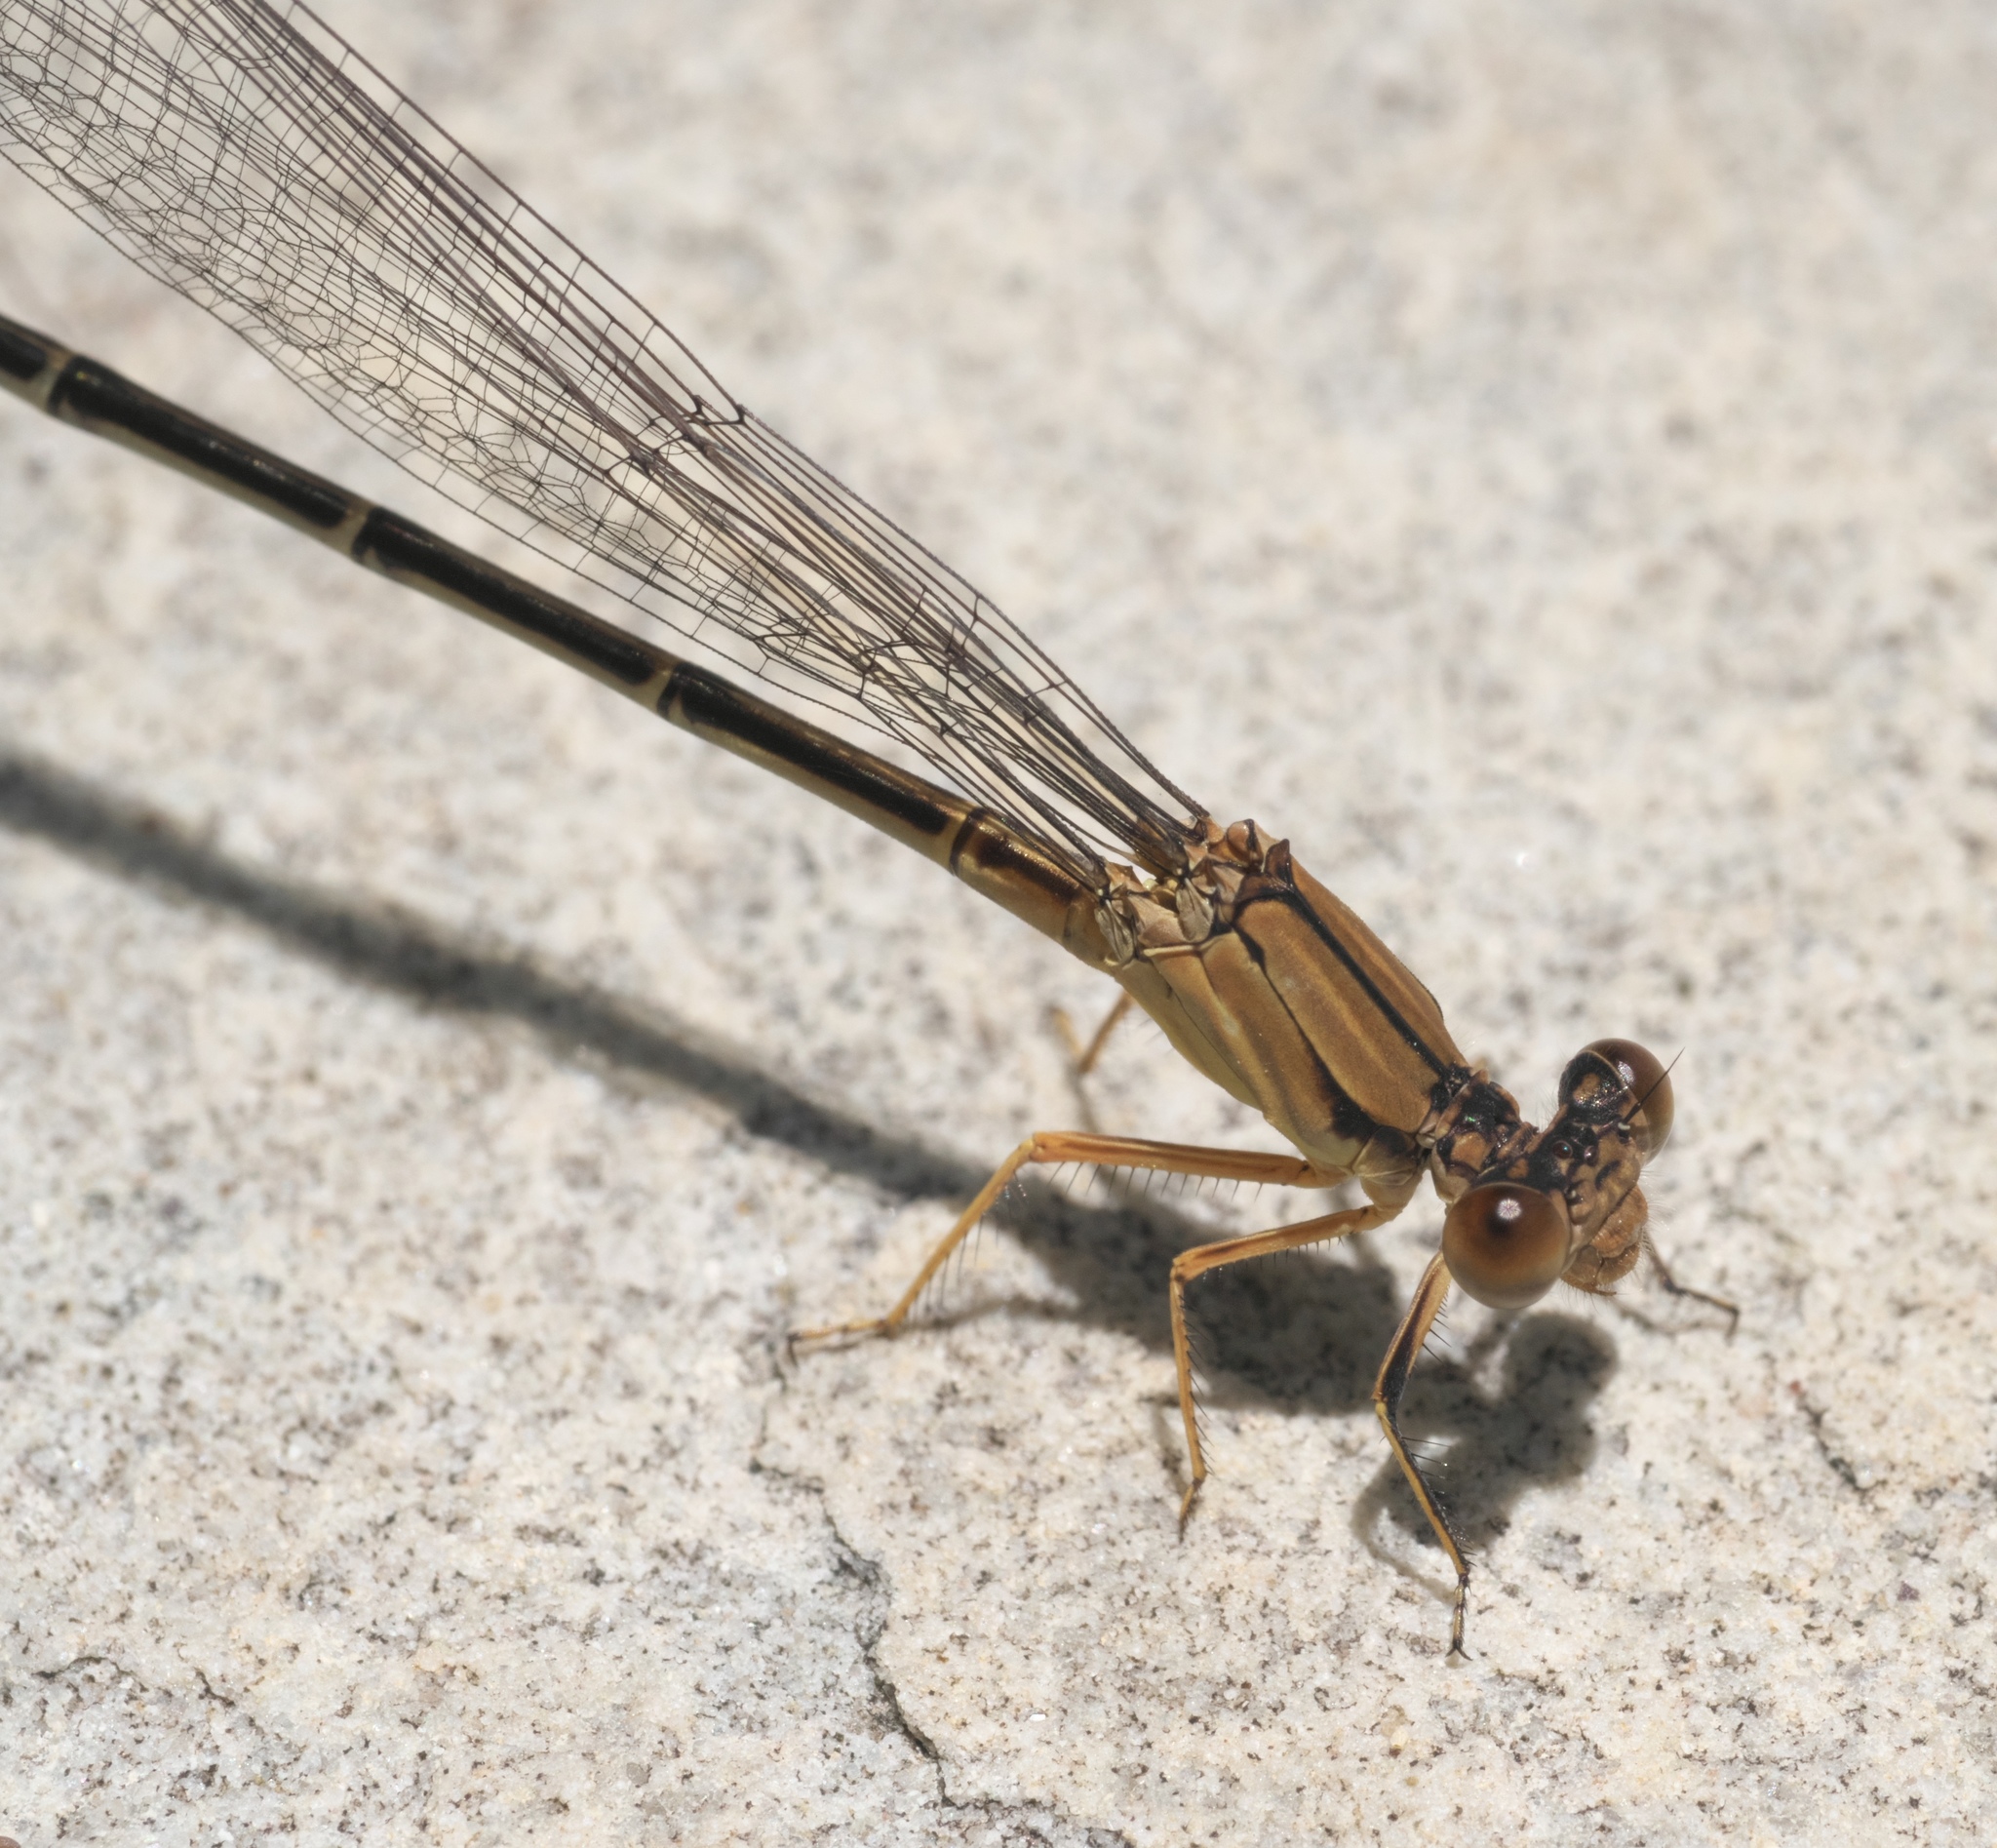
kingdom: Animalia
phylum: Arthropoda
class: Insecta
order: Odonata
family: Coenagrionidae
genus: Argia
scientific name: Argia apicalis
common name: Blue-fronted dancer
